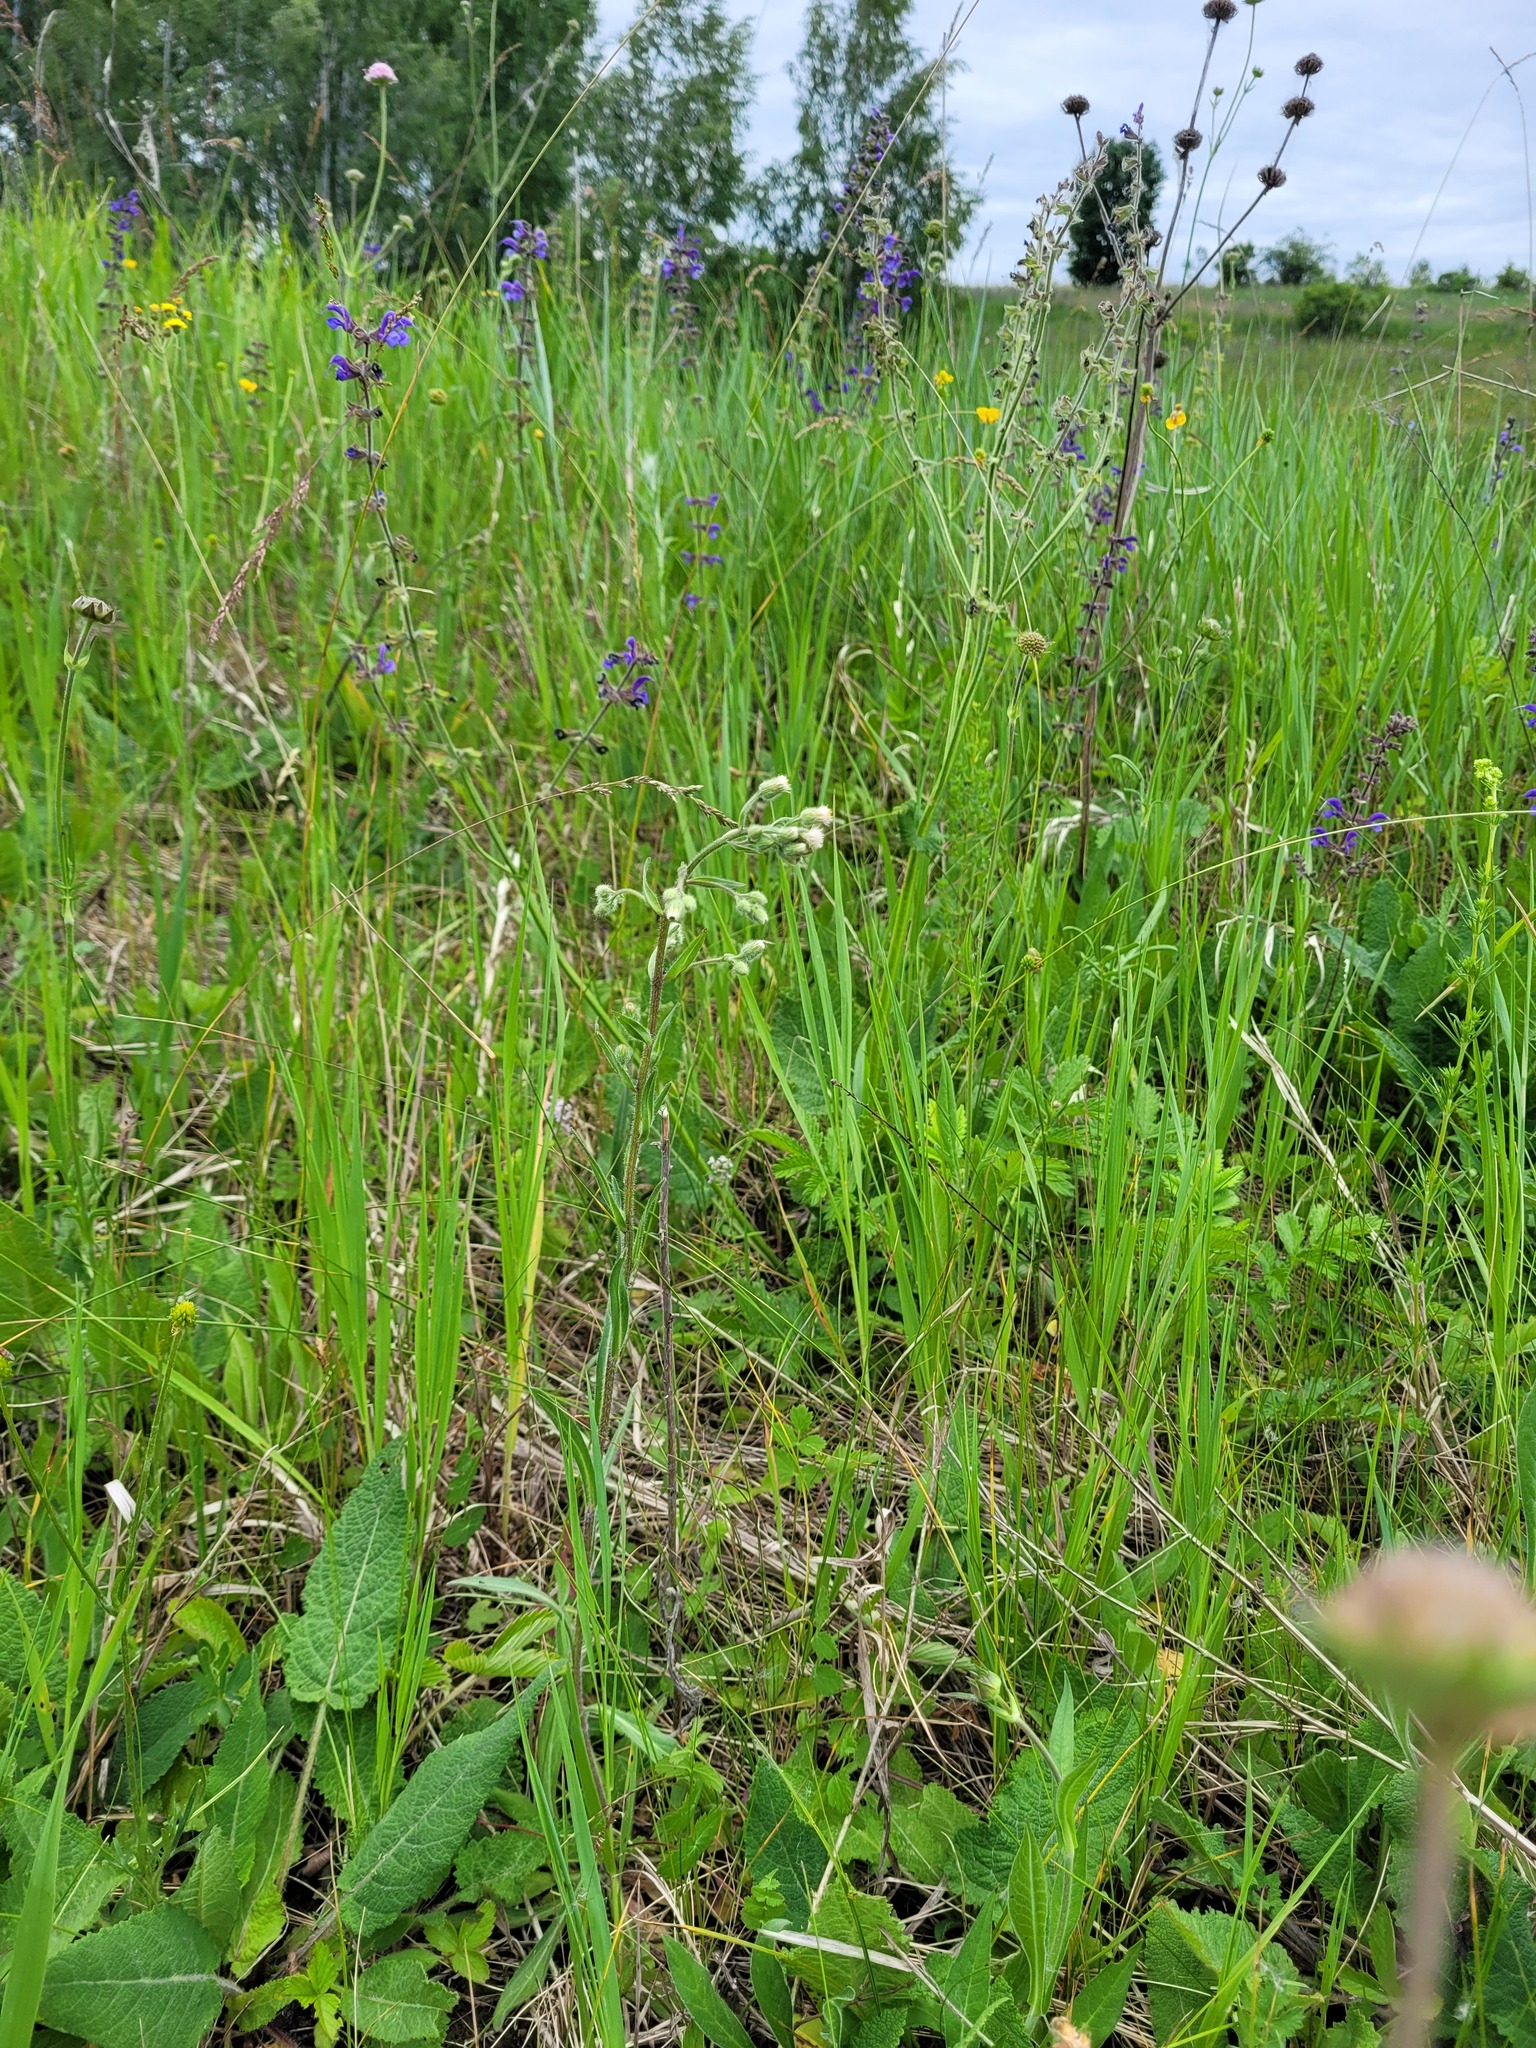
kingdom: Plantae
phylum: Tracheophyta
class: Magnoliopsida
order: Asterales
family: Asteraceae
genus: Erigeron
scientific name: Erigeron acris
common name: Blue fleabane
